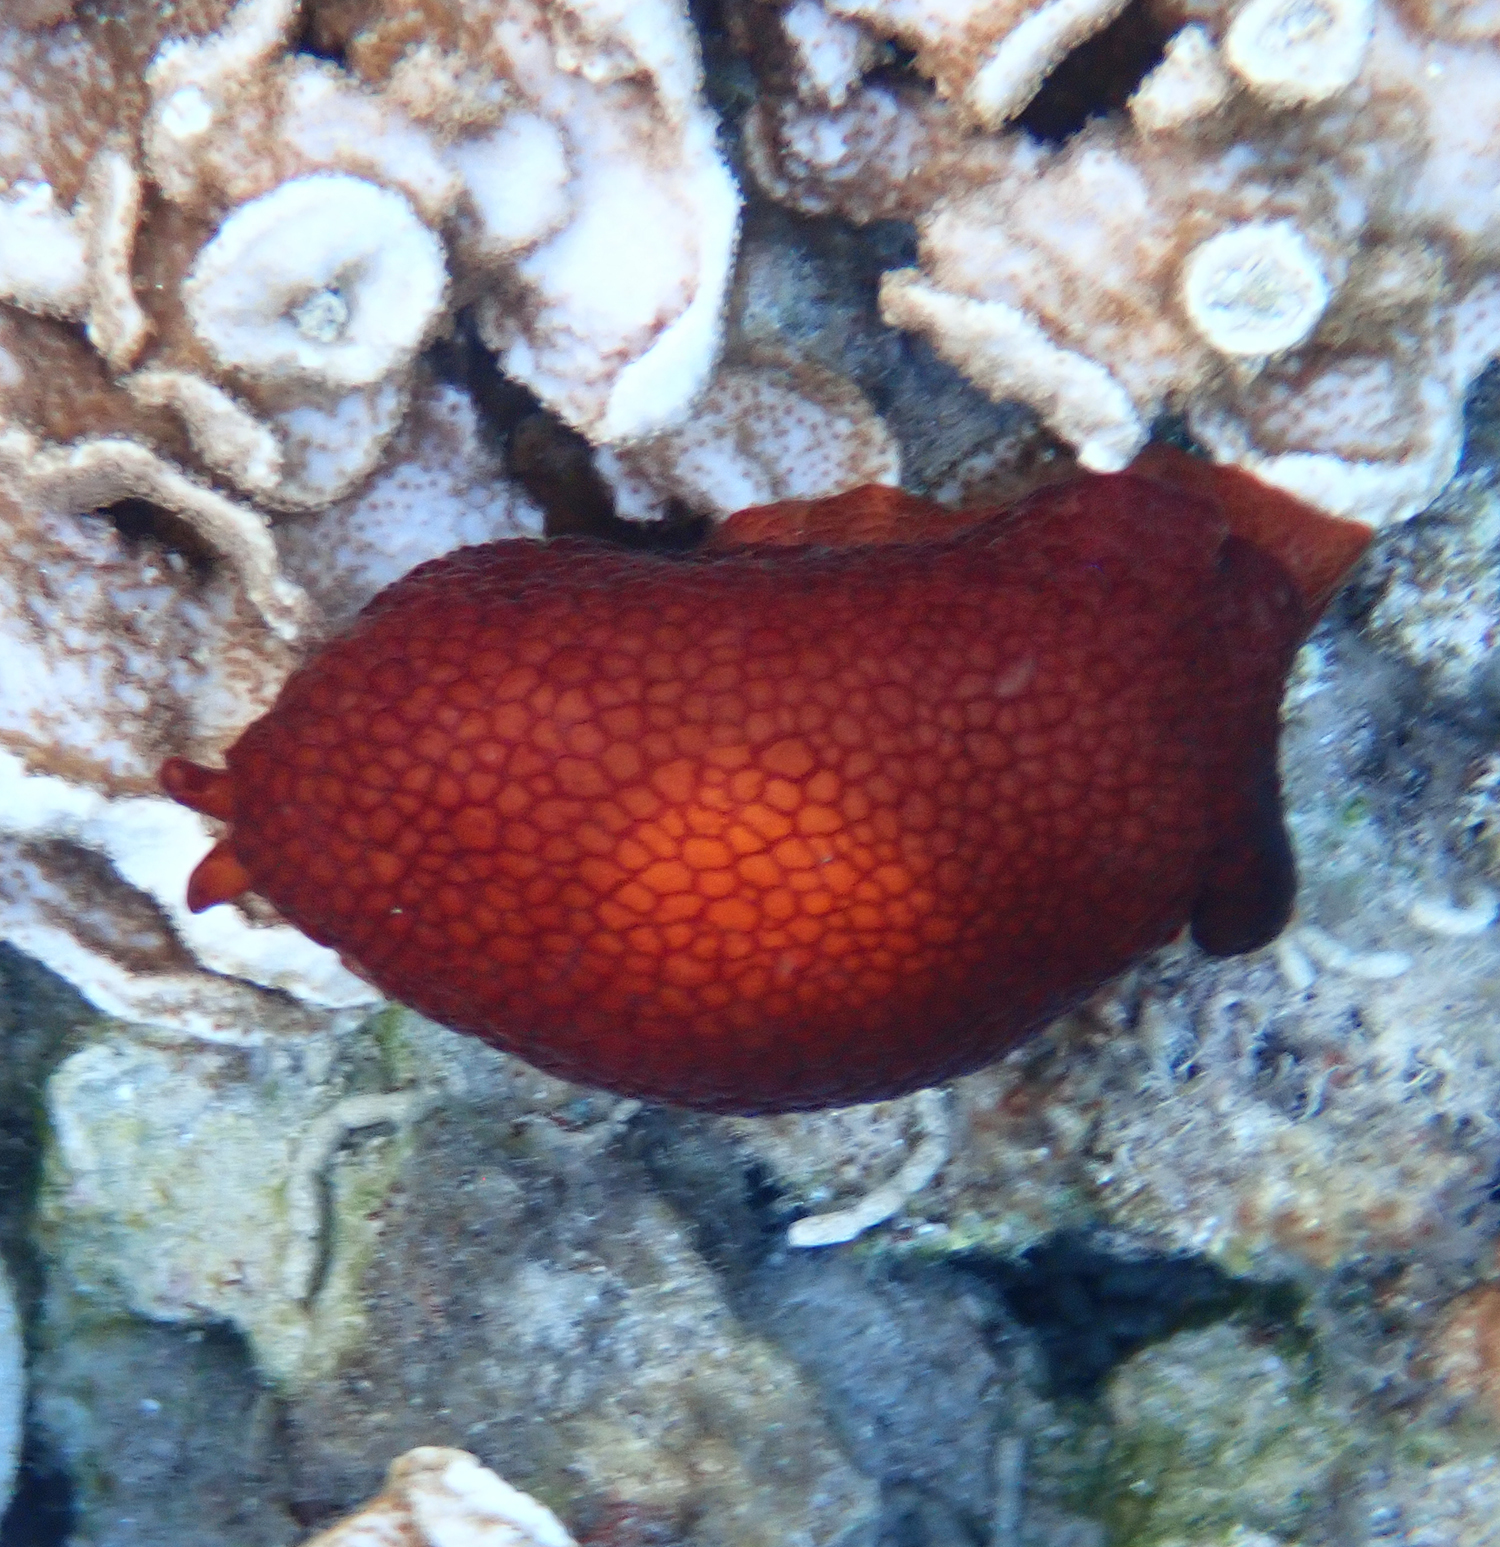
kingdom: Animalia
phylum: Mollusca
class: Gastropoda
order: Pleurobranchida
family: Pleurobranchidae
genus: Pleurobranchus
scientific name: Pleurobranchus peronii
